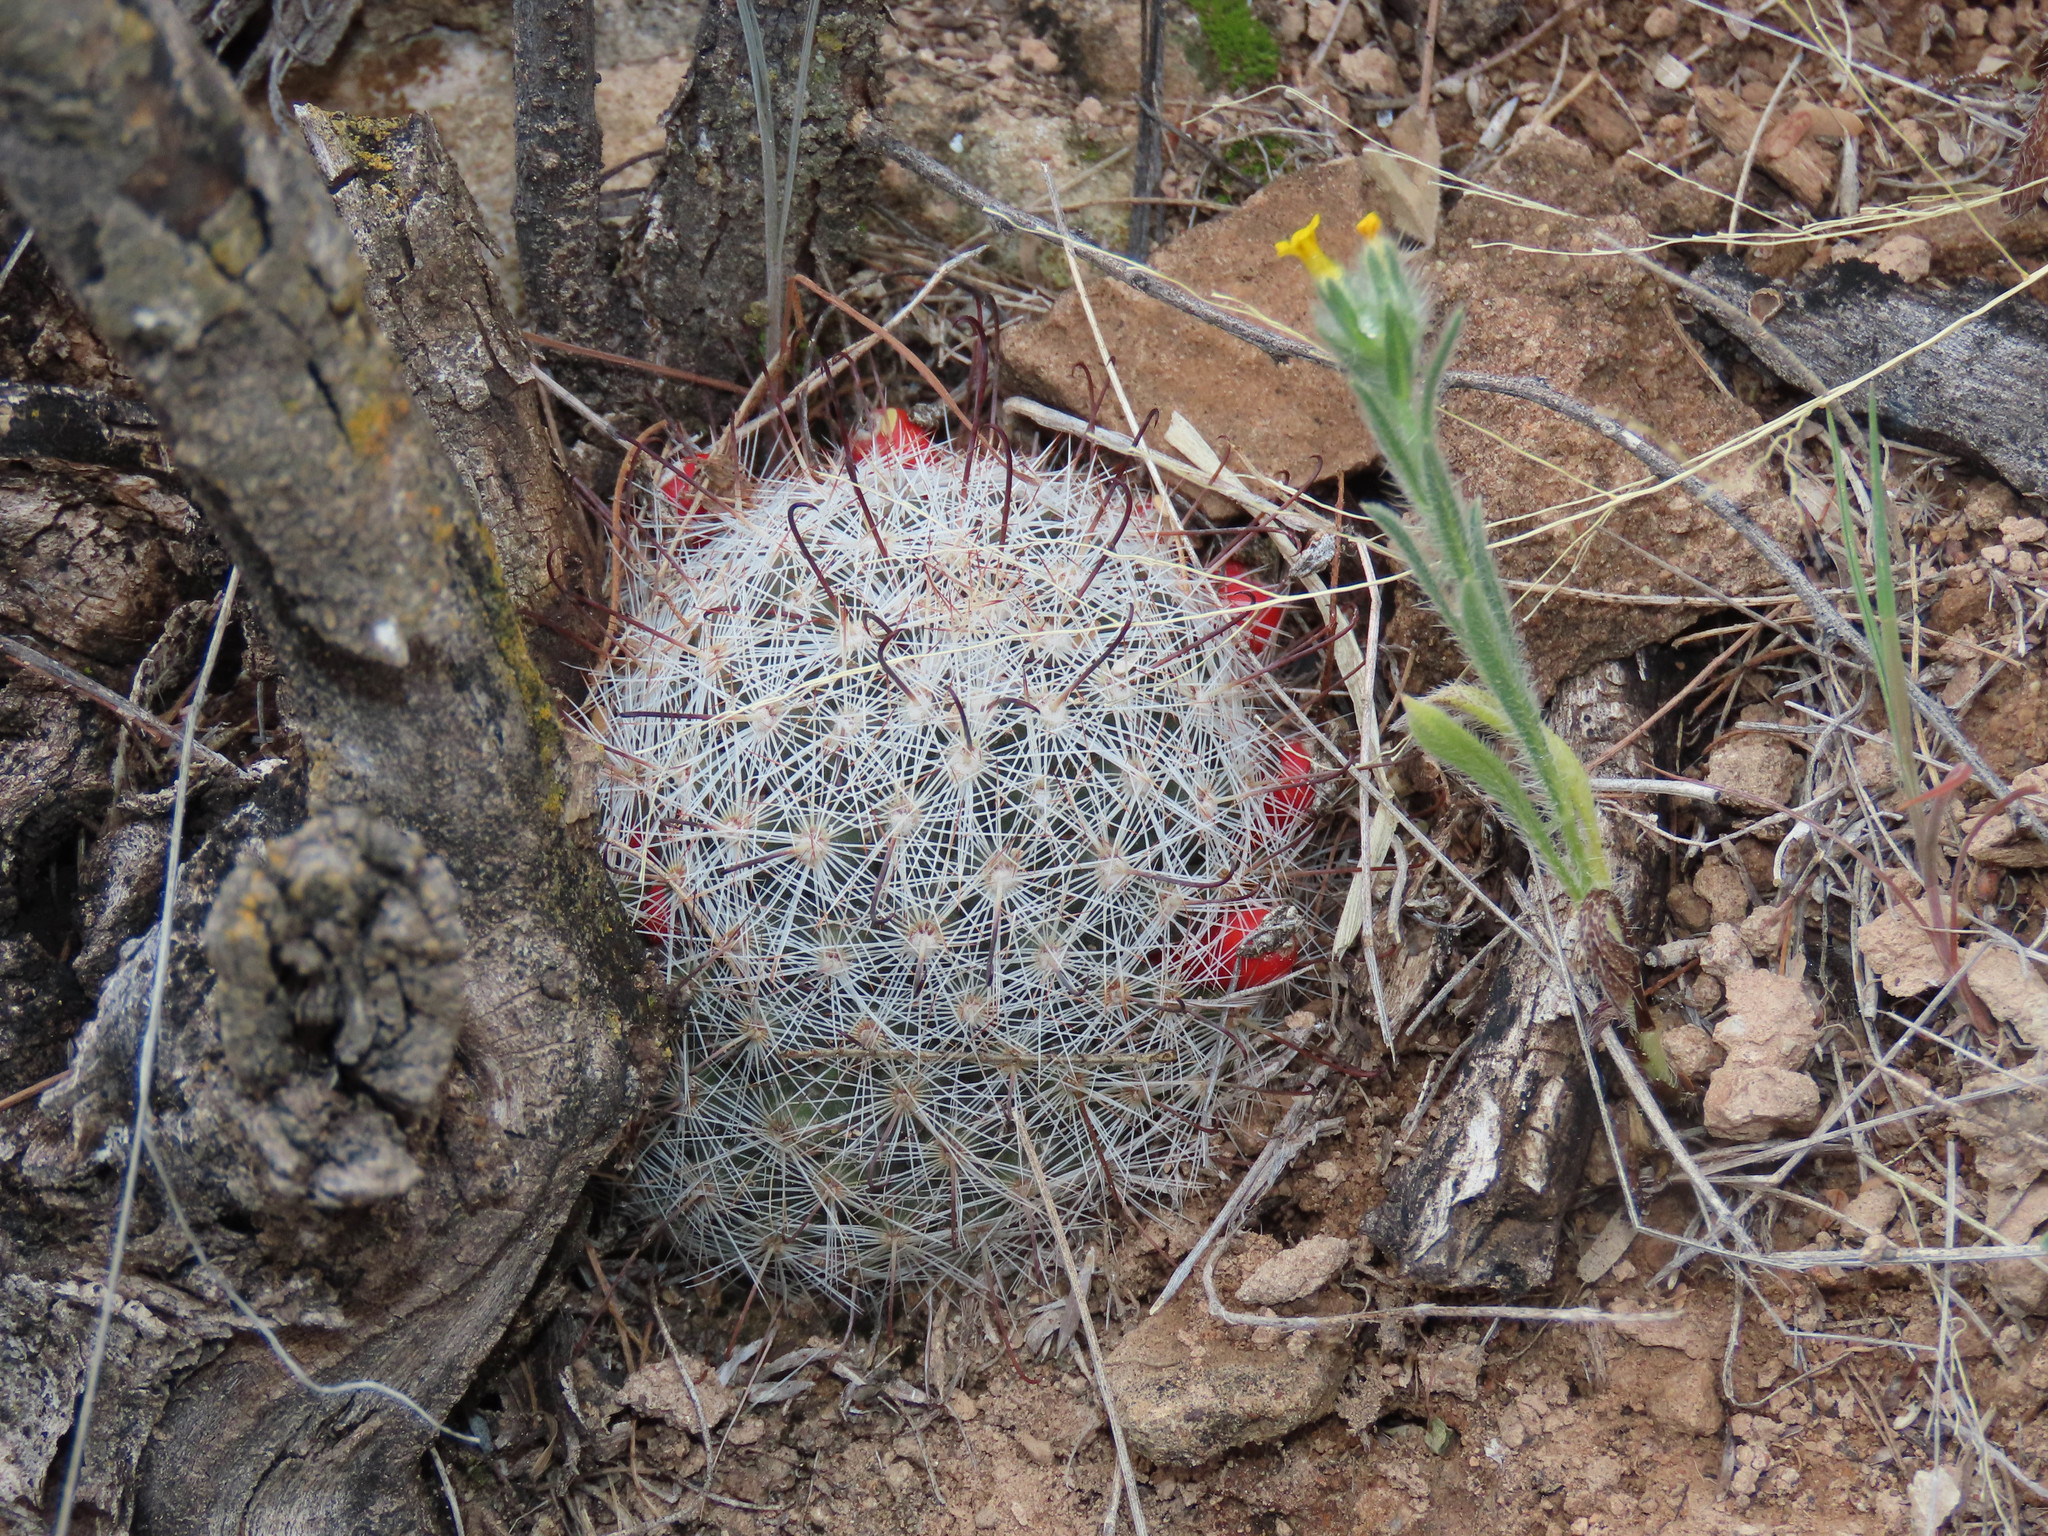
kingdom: Plantae
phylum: Tracheophyta
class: Magnoliopsida
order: Caryophyllales
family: Cactaceae
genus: Cochemiea
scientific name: Cochemiea grahamii
